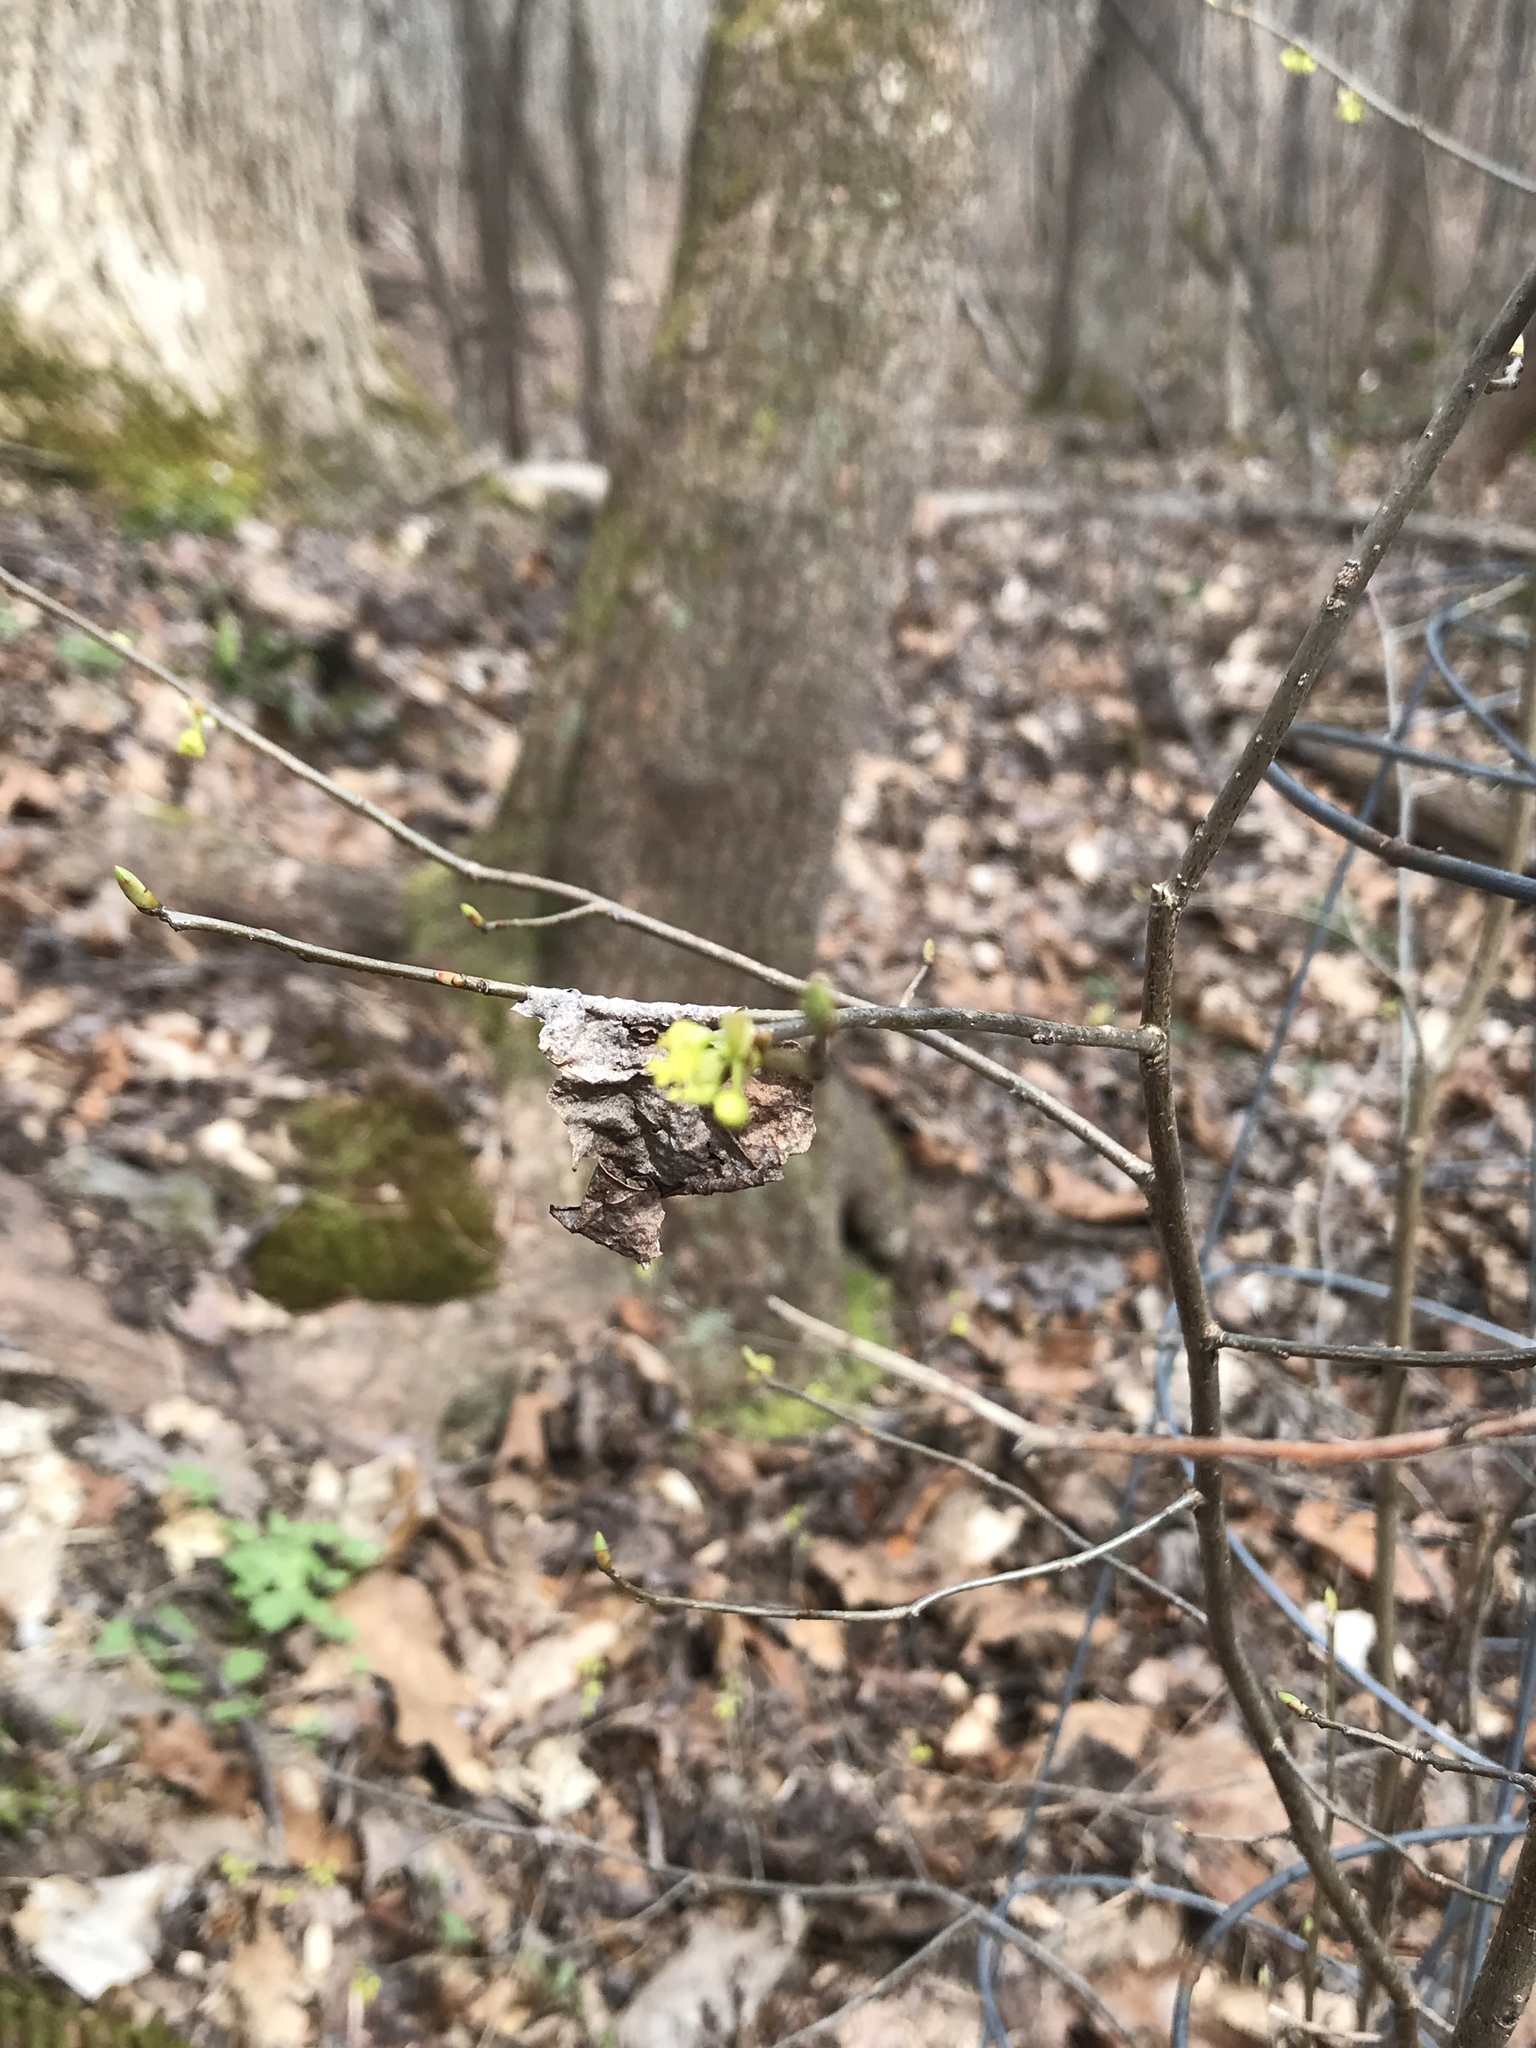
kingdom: Plantae
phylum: Tracheophyta
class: Magnoliopsida
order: Laurales
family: Lauraceae
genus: Lindera
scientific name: Lindera benzoin
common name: Spicebush
